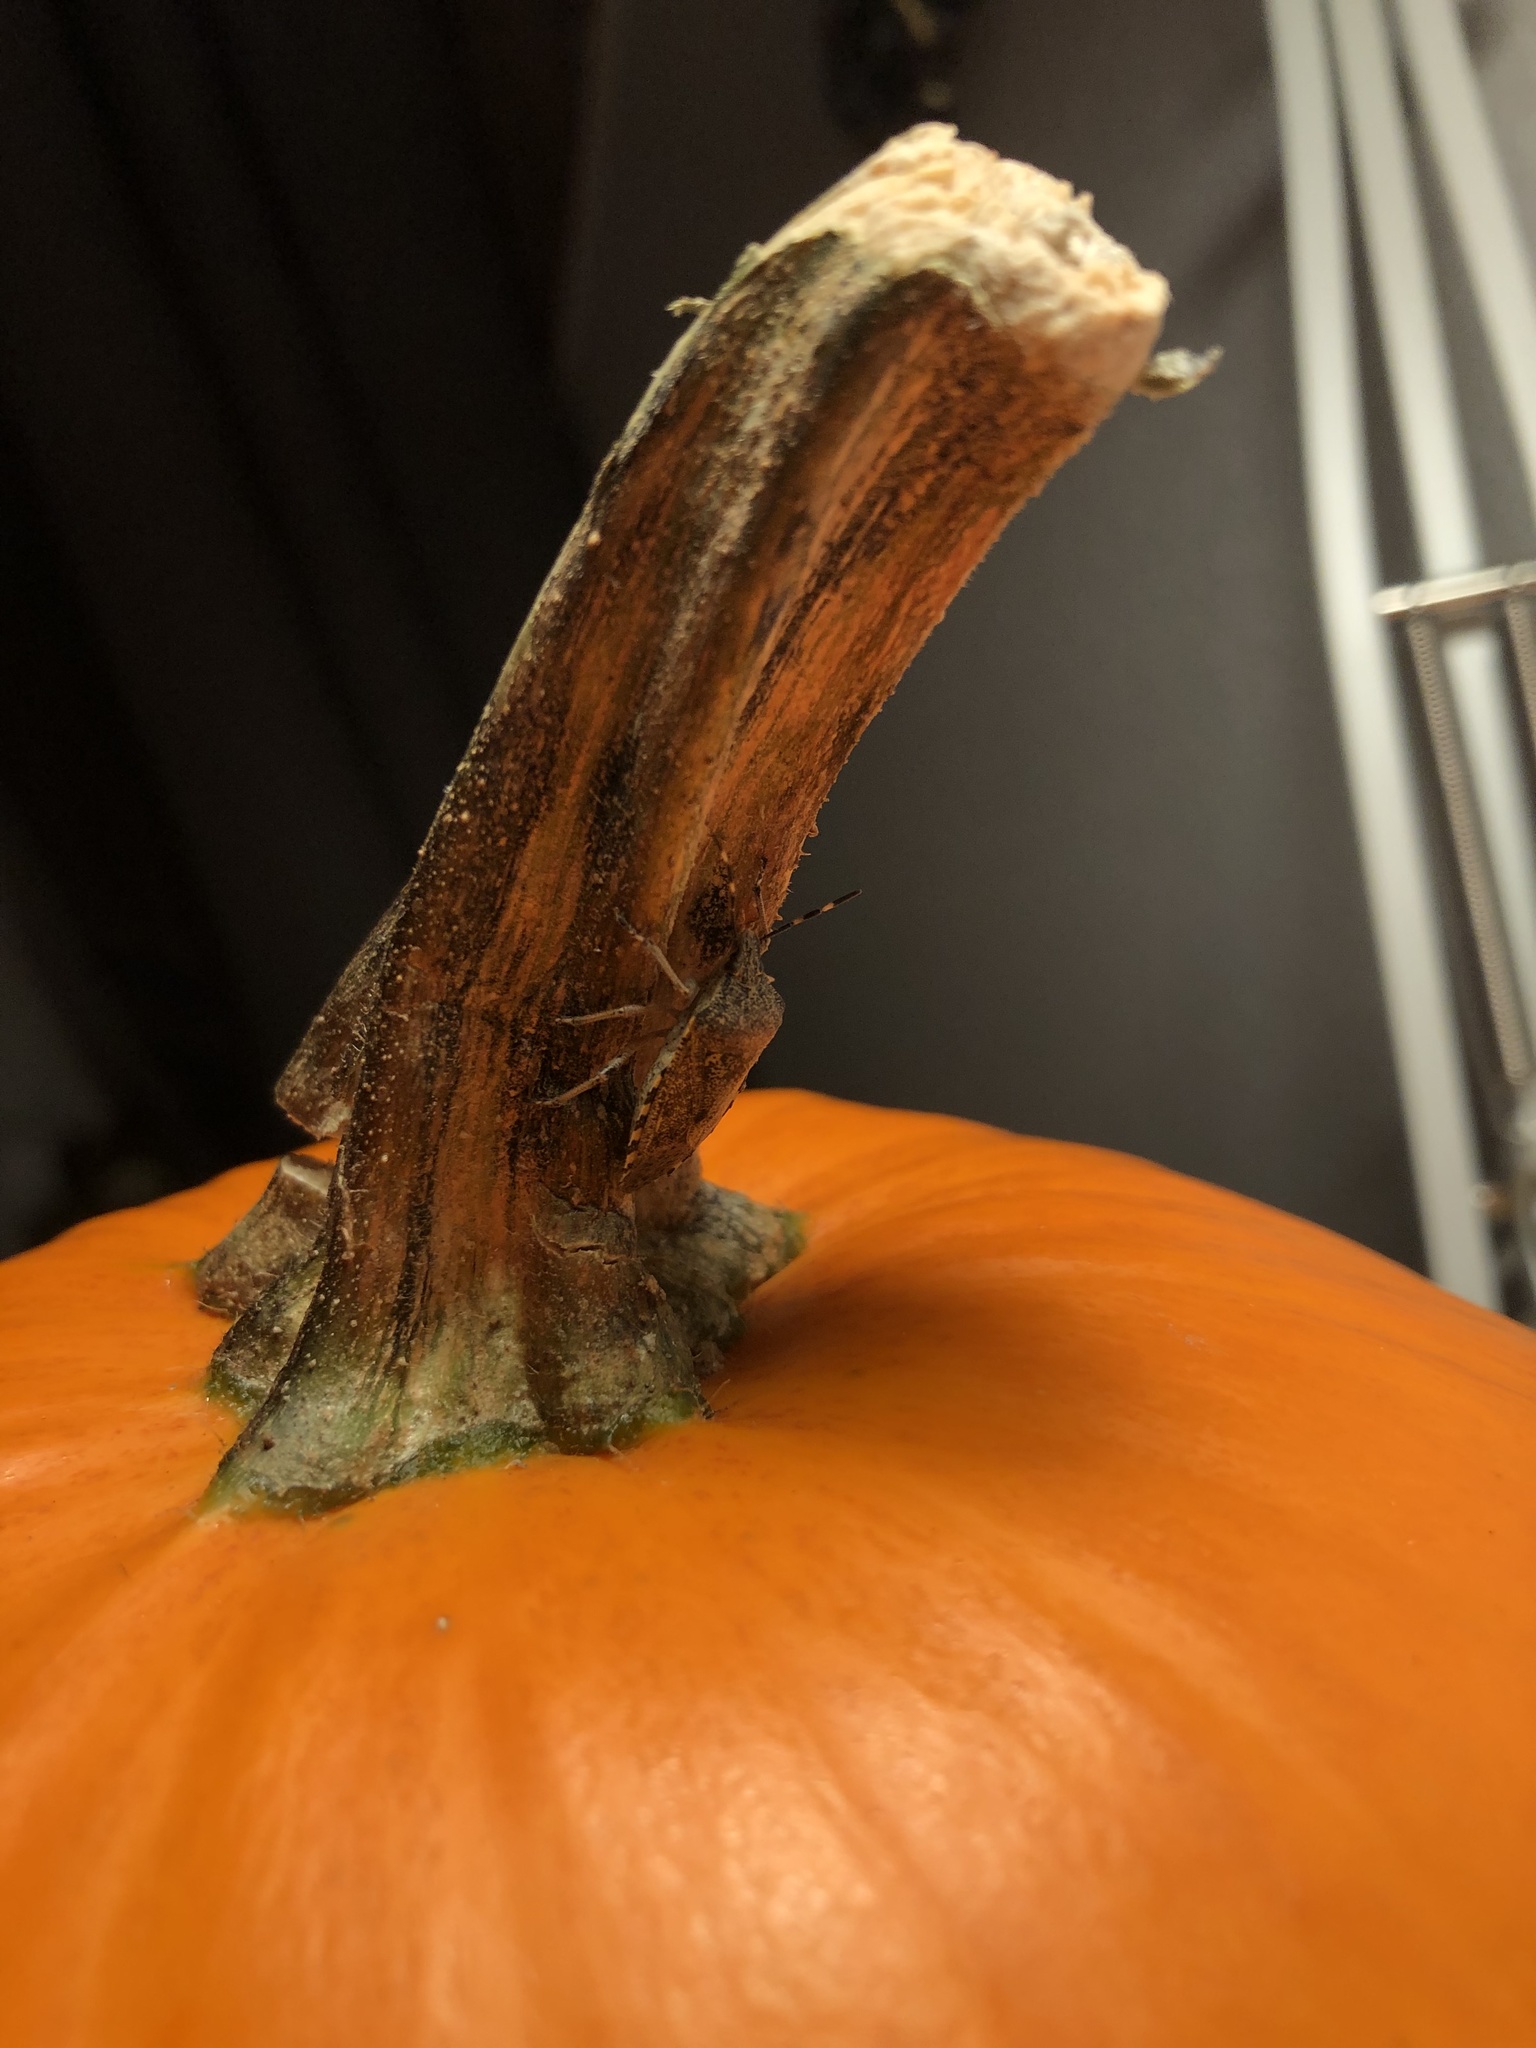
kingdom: Animalia
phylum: Arthropoda
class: Insecta
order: Hemiptera
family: Pentatomidae
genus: Rhaphigaster
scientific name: Rhaphigaster nebulosa
